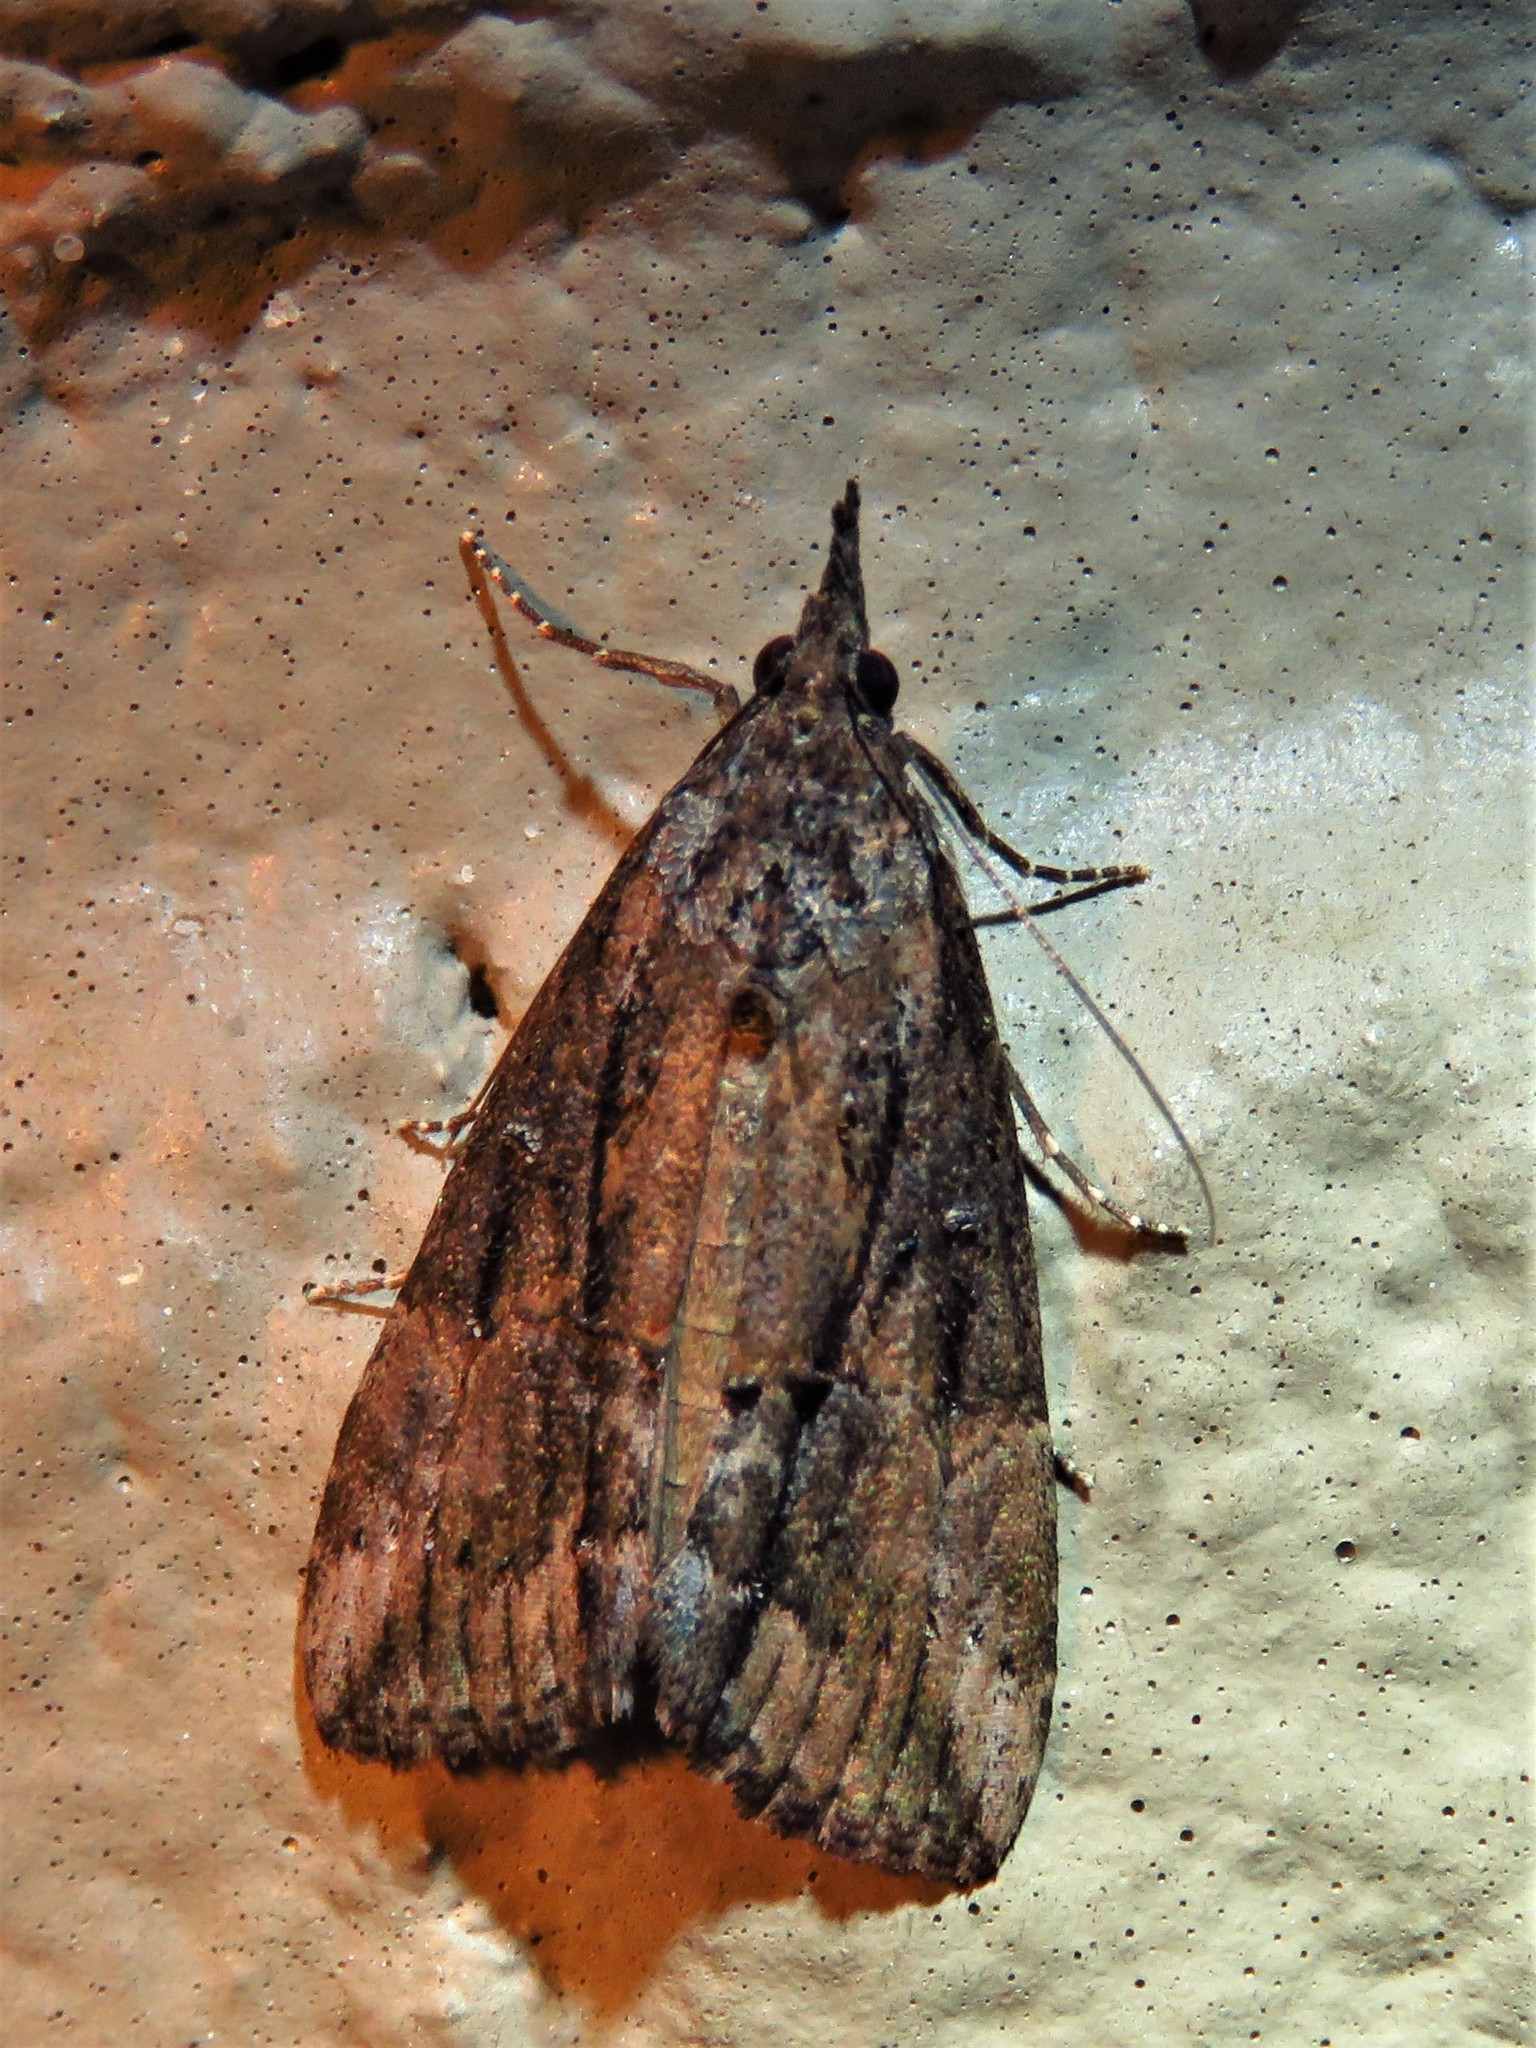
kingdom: Animalia
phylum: Arthropoda
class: Insecta
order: Lepidoptera
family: Erebidae
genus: Hypena
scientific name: Hypena scabra
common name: Green cloverworm
